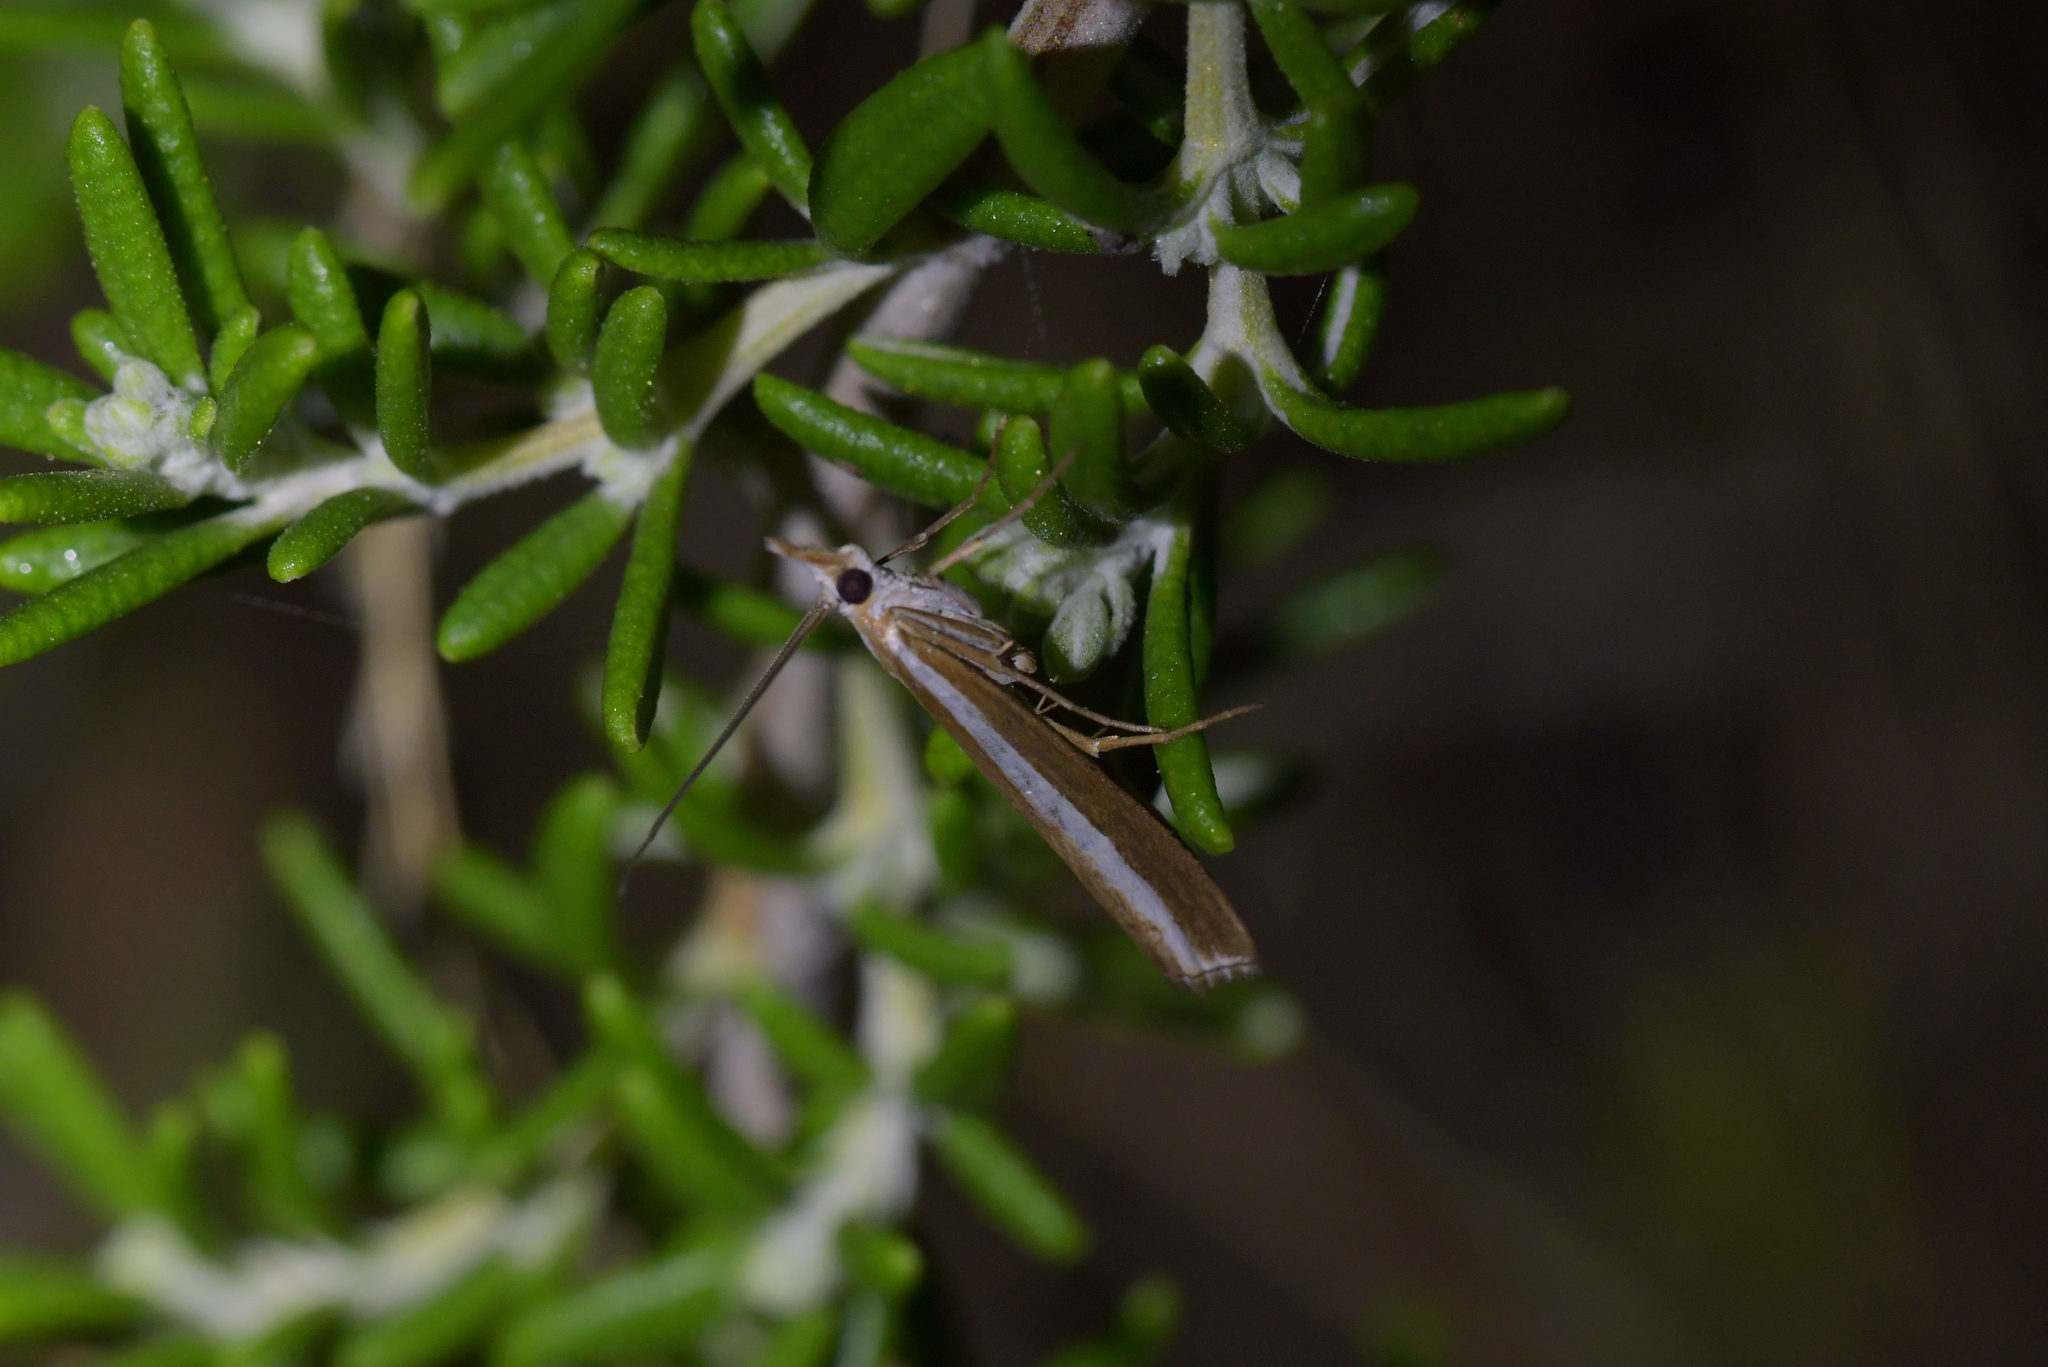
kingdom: Animalia
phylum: Arthropoda
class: Insecta
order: Lepidoptera
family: Crambidae
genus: Orocrambus
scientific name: Orocrambus vittellus
